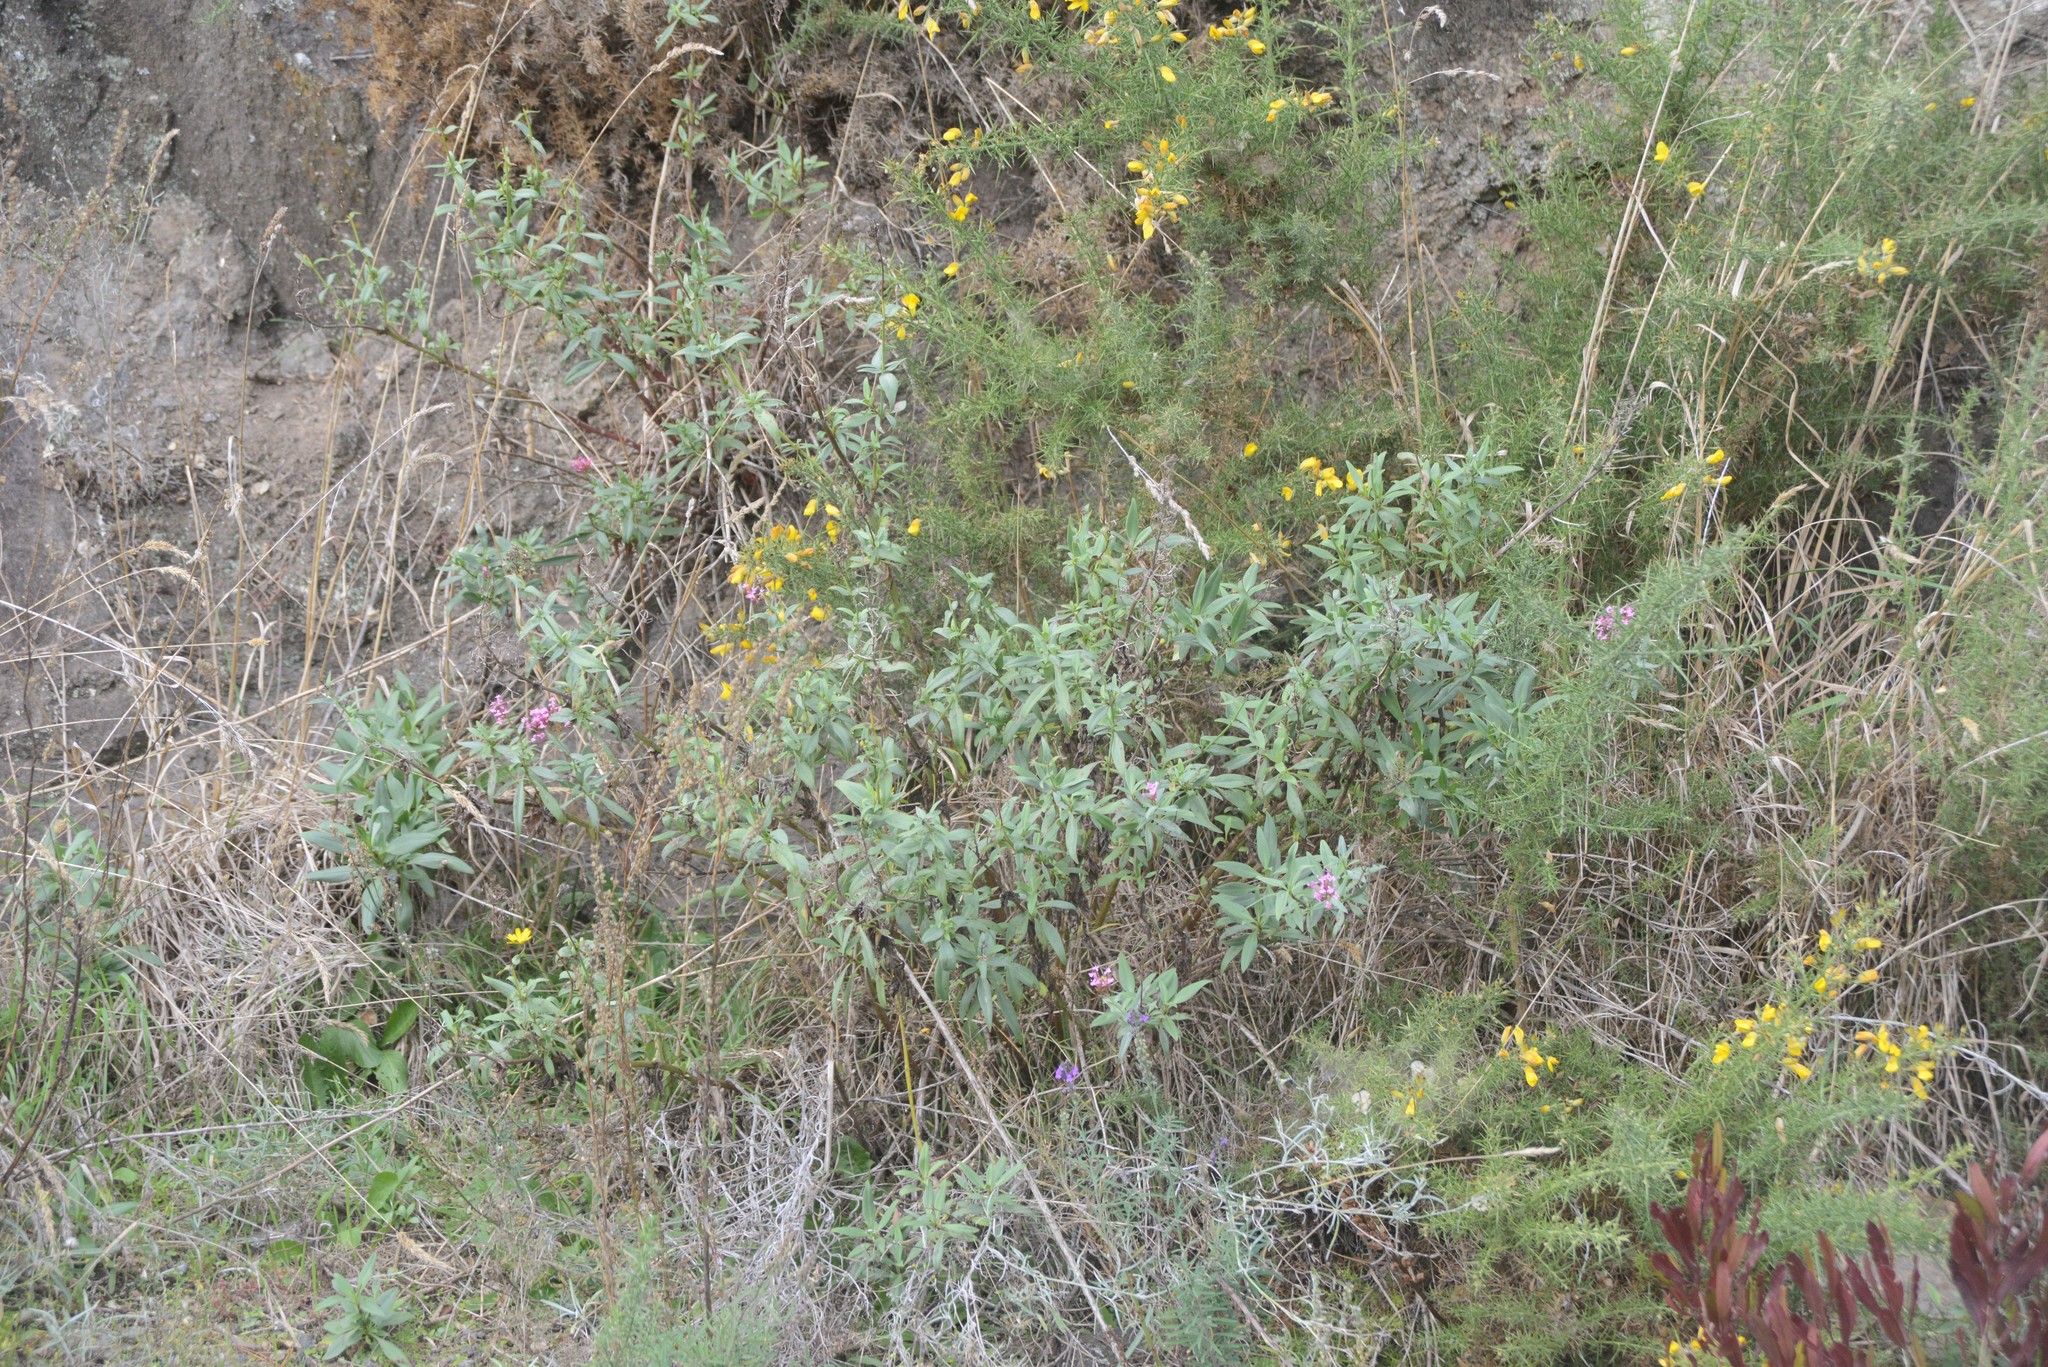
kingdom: Plantae
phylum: Tracheophyta
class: Magnoliopsida
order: Dipsacales
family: Caprifoliaceae
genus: Centranthus
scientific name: Centranthus ruber
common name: Red valerian
